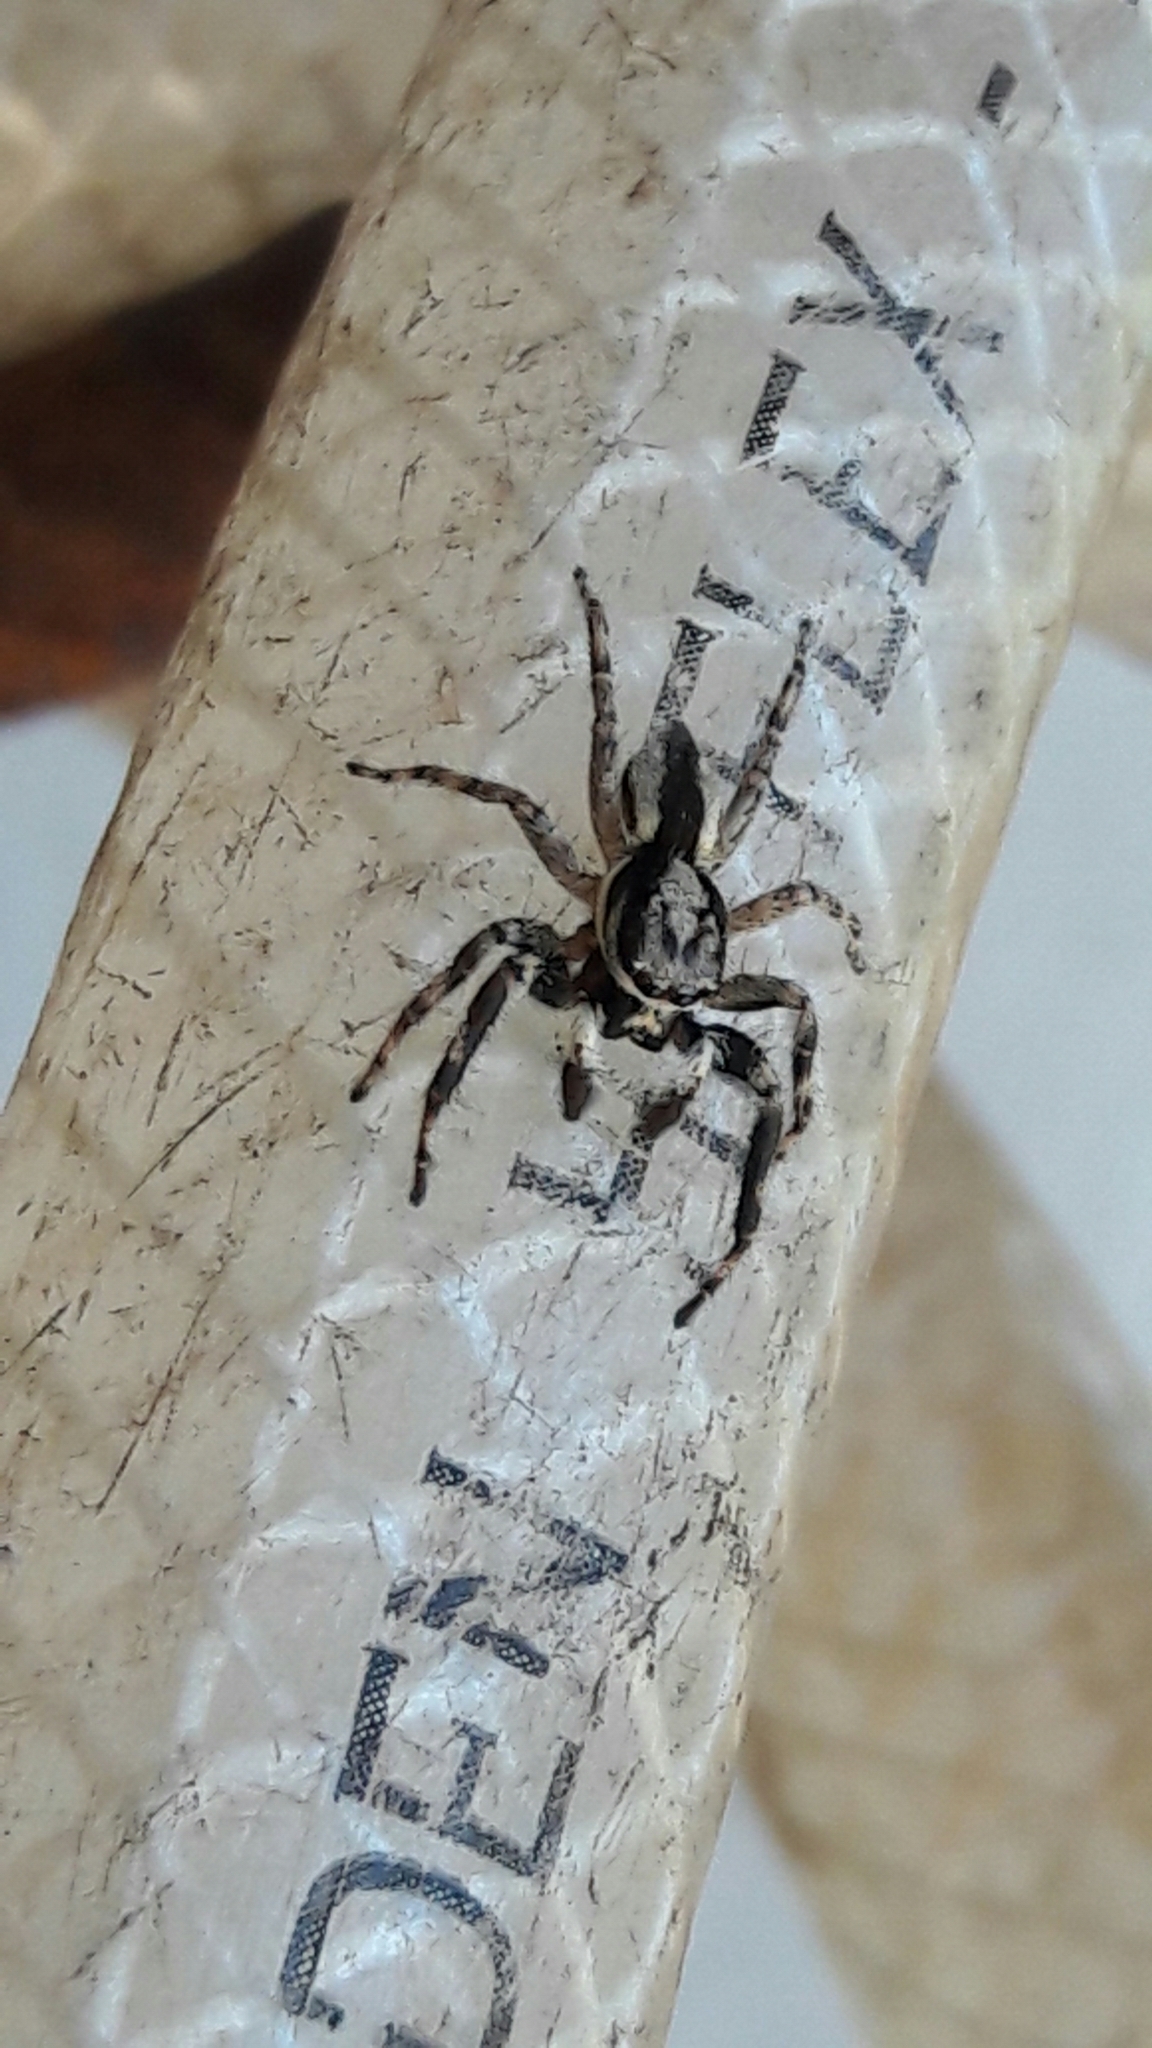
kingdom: Animalia
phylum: Arthropoda
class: Arachnida
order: Araneae
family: Salticidae
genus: Menemerus
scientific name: Menemerus bivittatus
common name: Gray wall jumper
